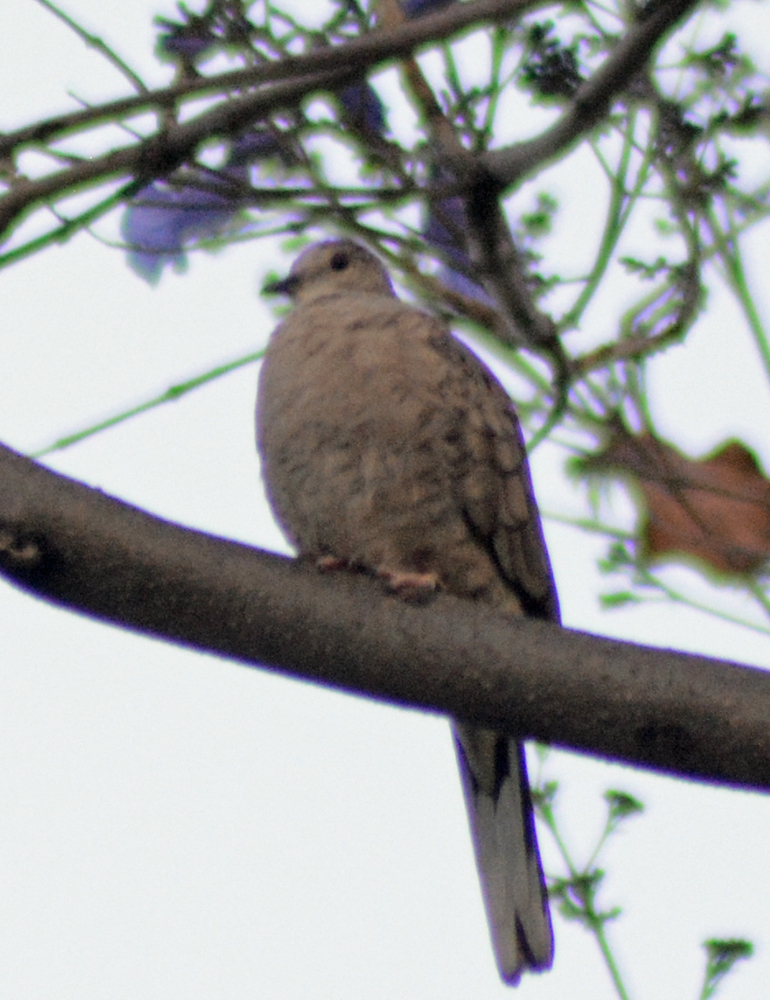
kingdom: Animalia
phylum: Chordata
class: Aves
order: Columbiformes
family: Columbidae
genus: Columbina
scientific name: Columbina inca
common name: Inca dove
